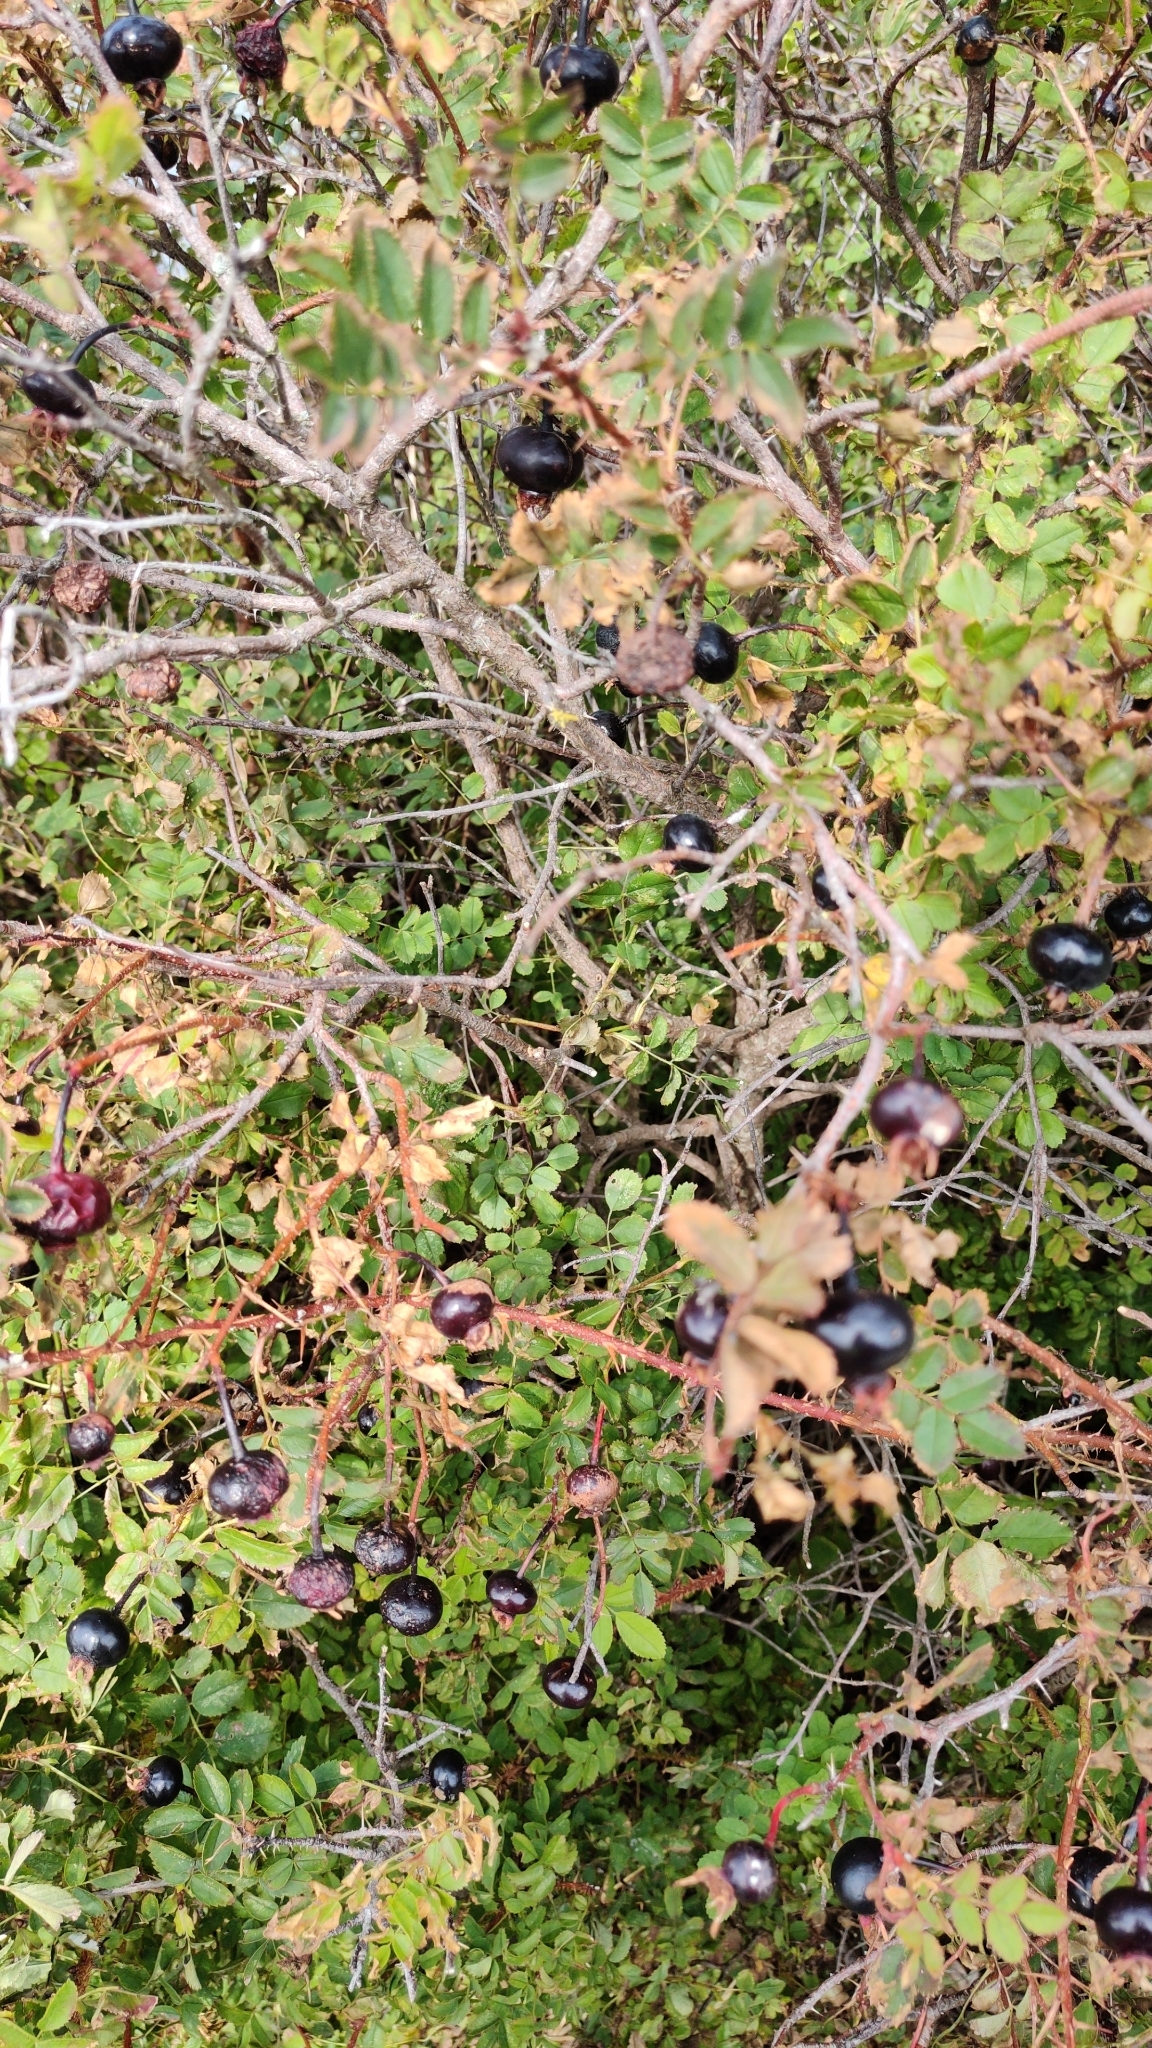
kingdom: Plantae
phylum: Tracheophyta
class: Magnoliopsida
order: Rosales
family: Rosaceae
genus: Rosa
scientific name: Rosa spinosissima
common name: Burnet rose
